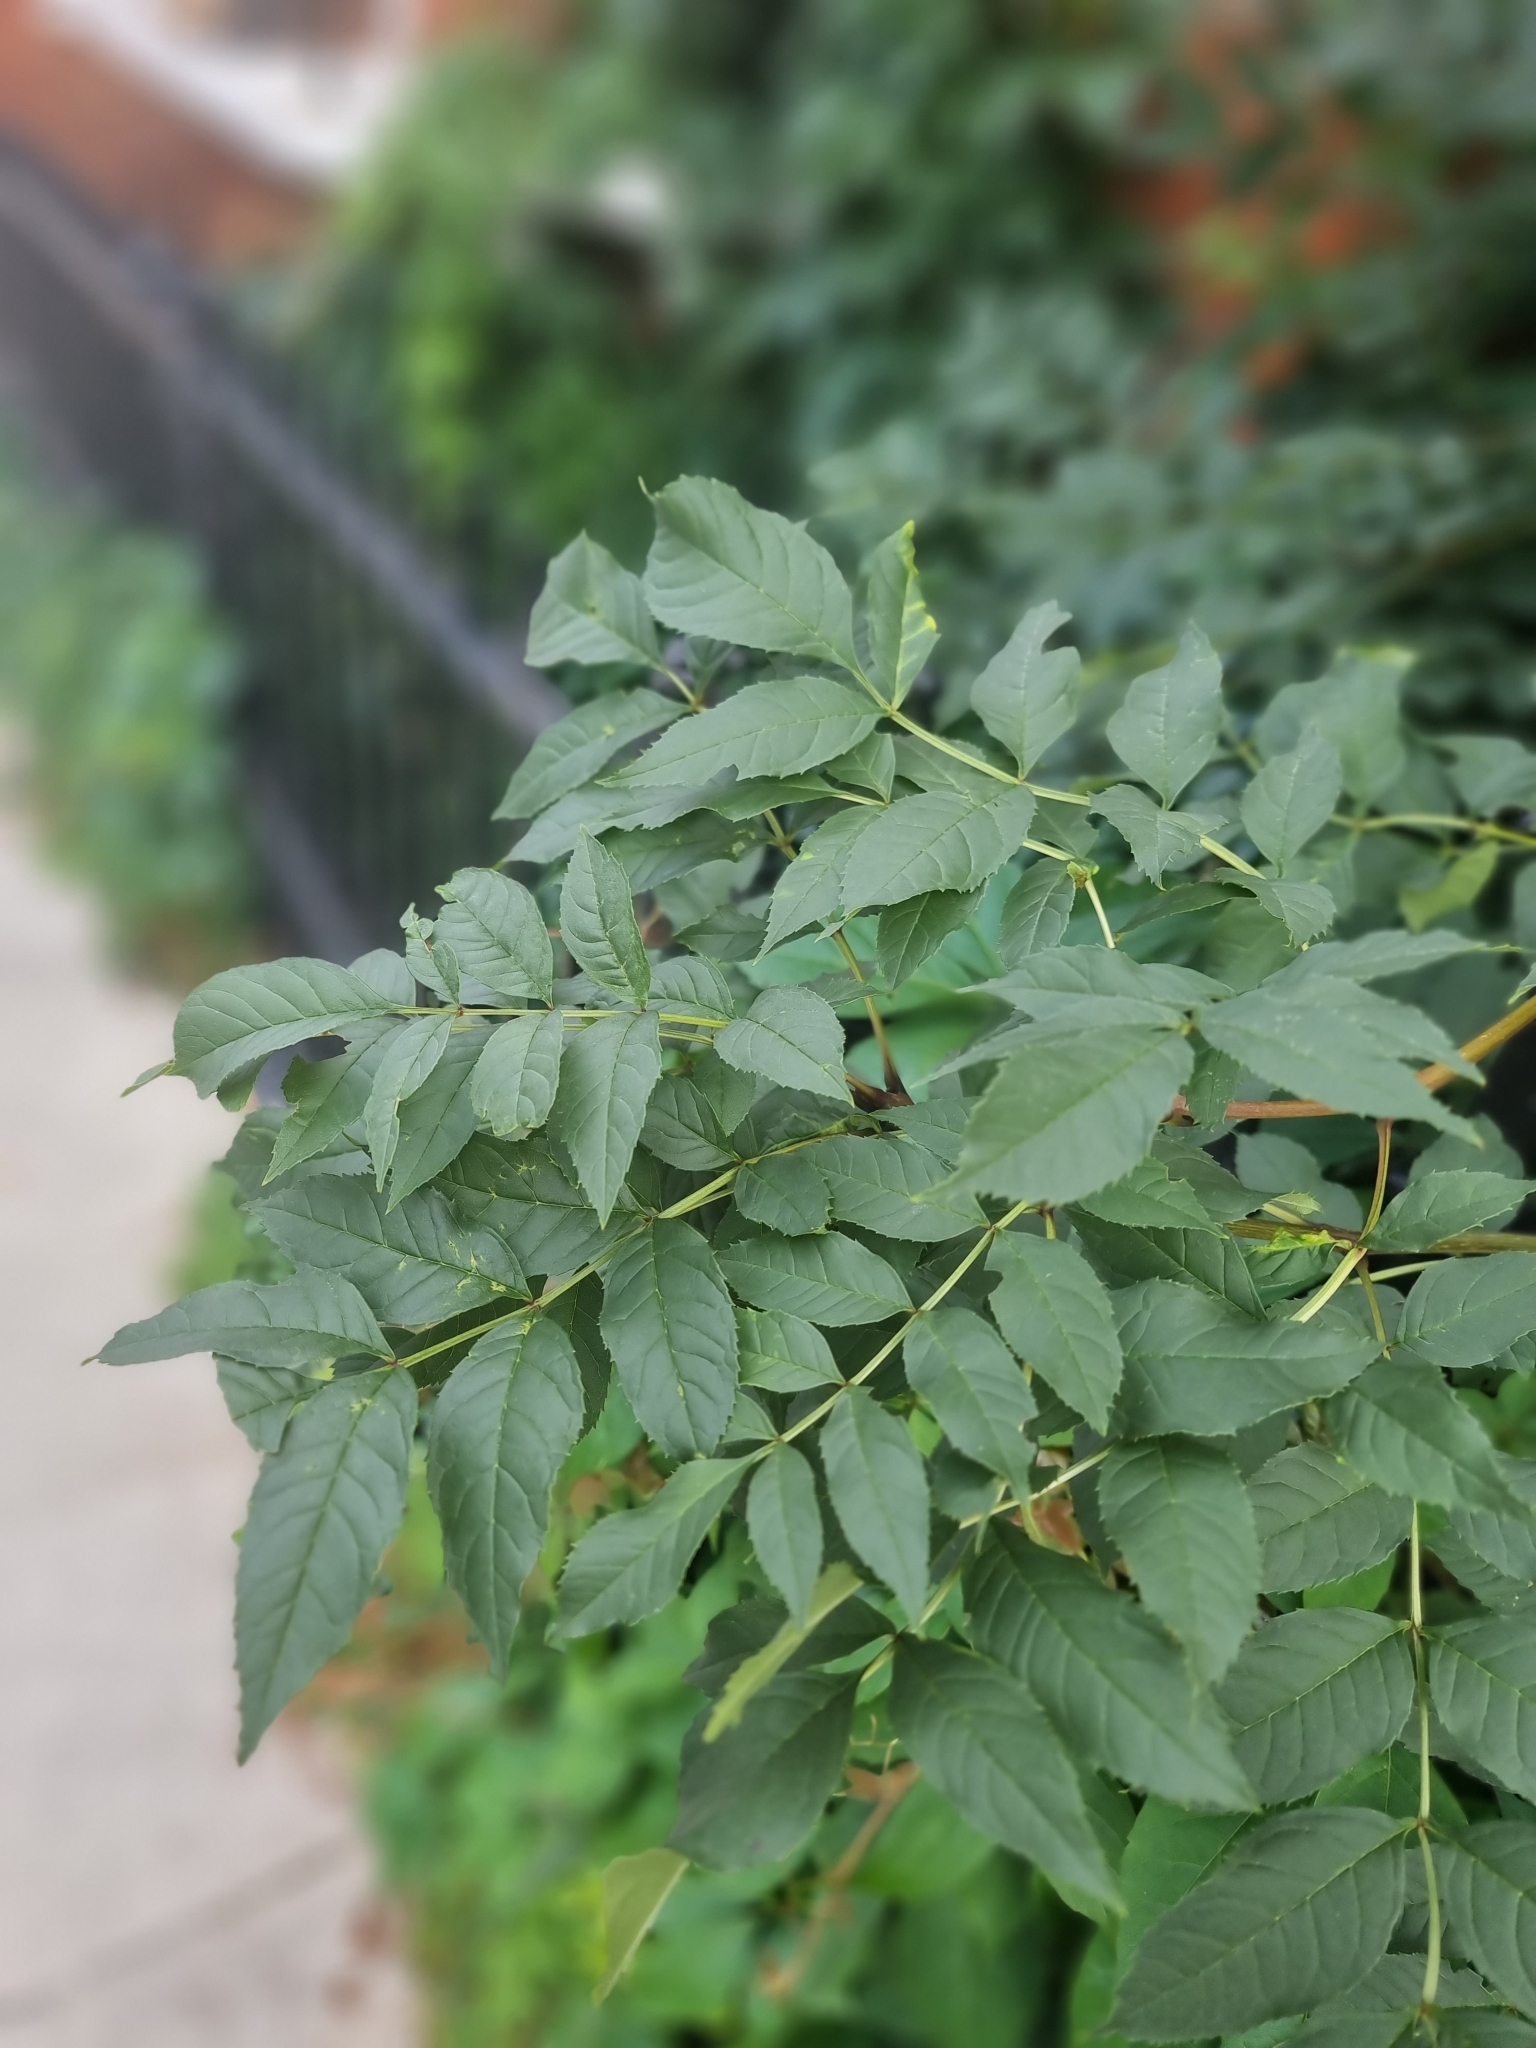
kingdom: Plantae
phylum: Tracheophyta
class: Magnoliopsida
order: Lamiales
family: Oleaceae
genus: Fraxinus
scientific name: Fraxinus excelsior
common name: European ash
